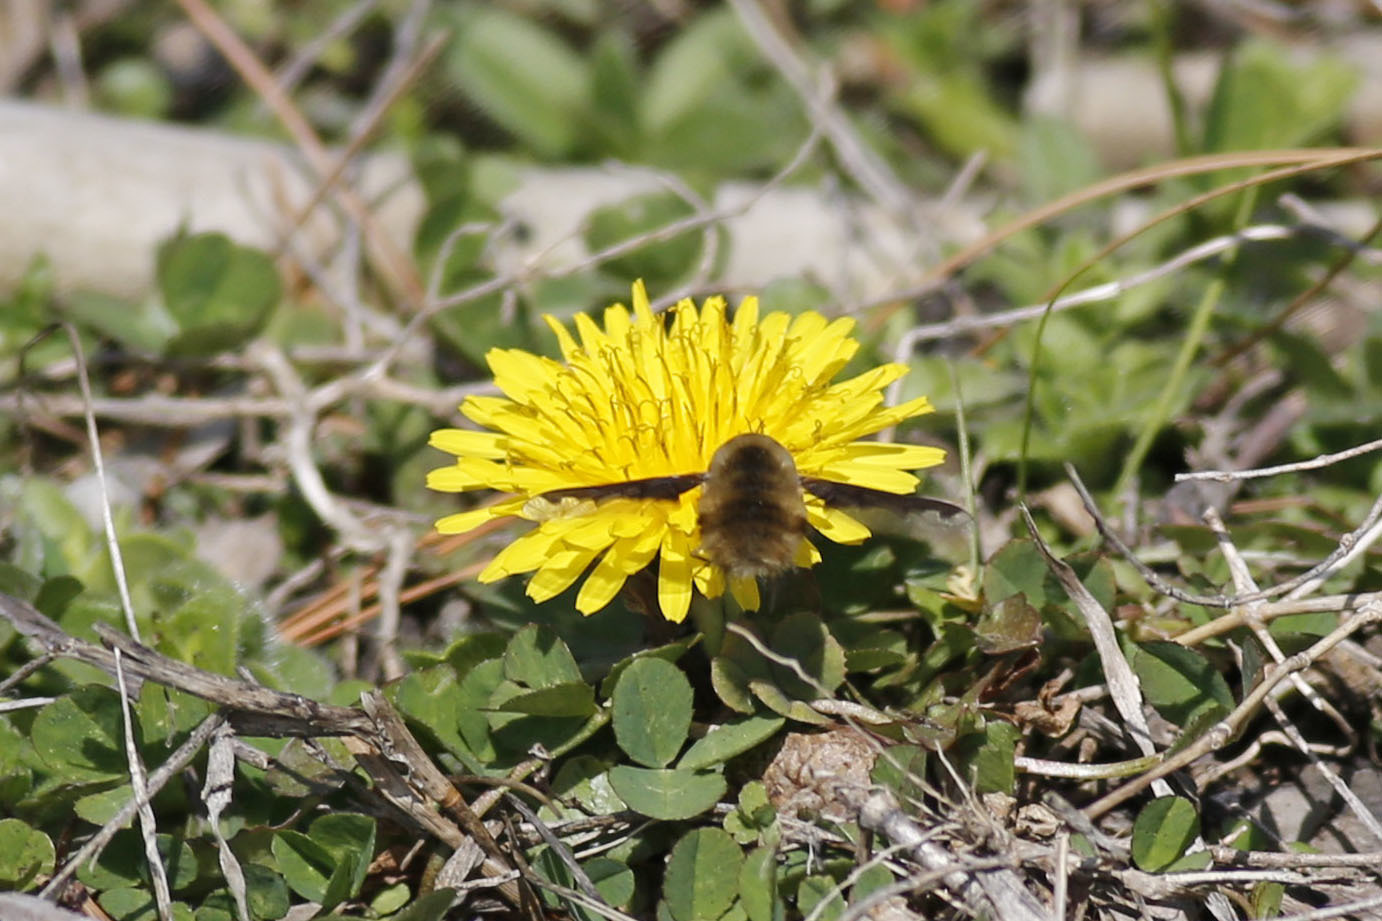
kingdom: Animalia
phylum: Arthropoda
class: Insecta
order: Diptera
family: Bombyliidae
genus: Bombylius
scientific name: Bombylius major
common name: Bee fly
